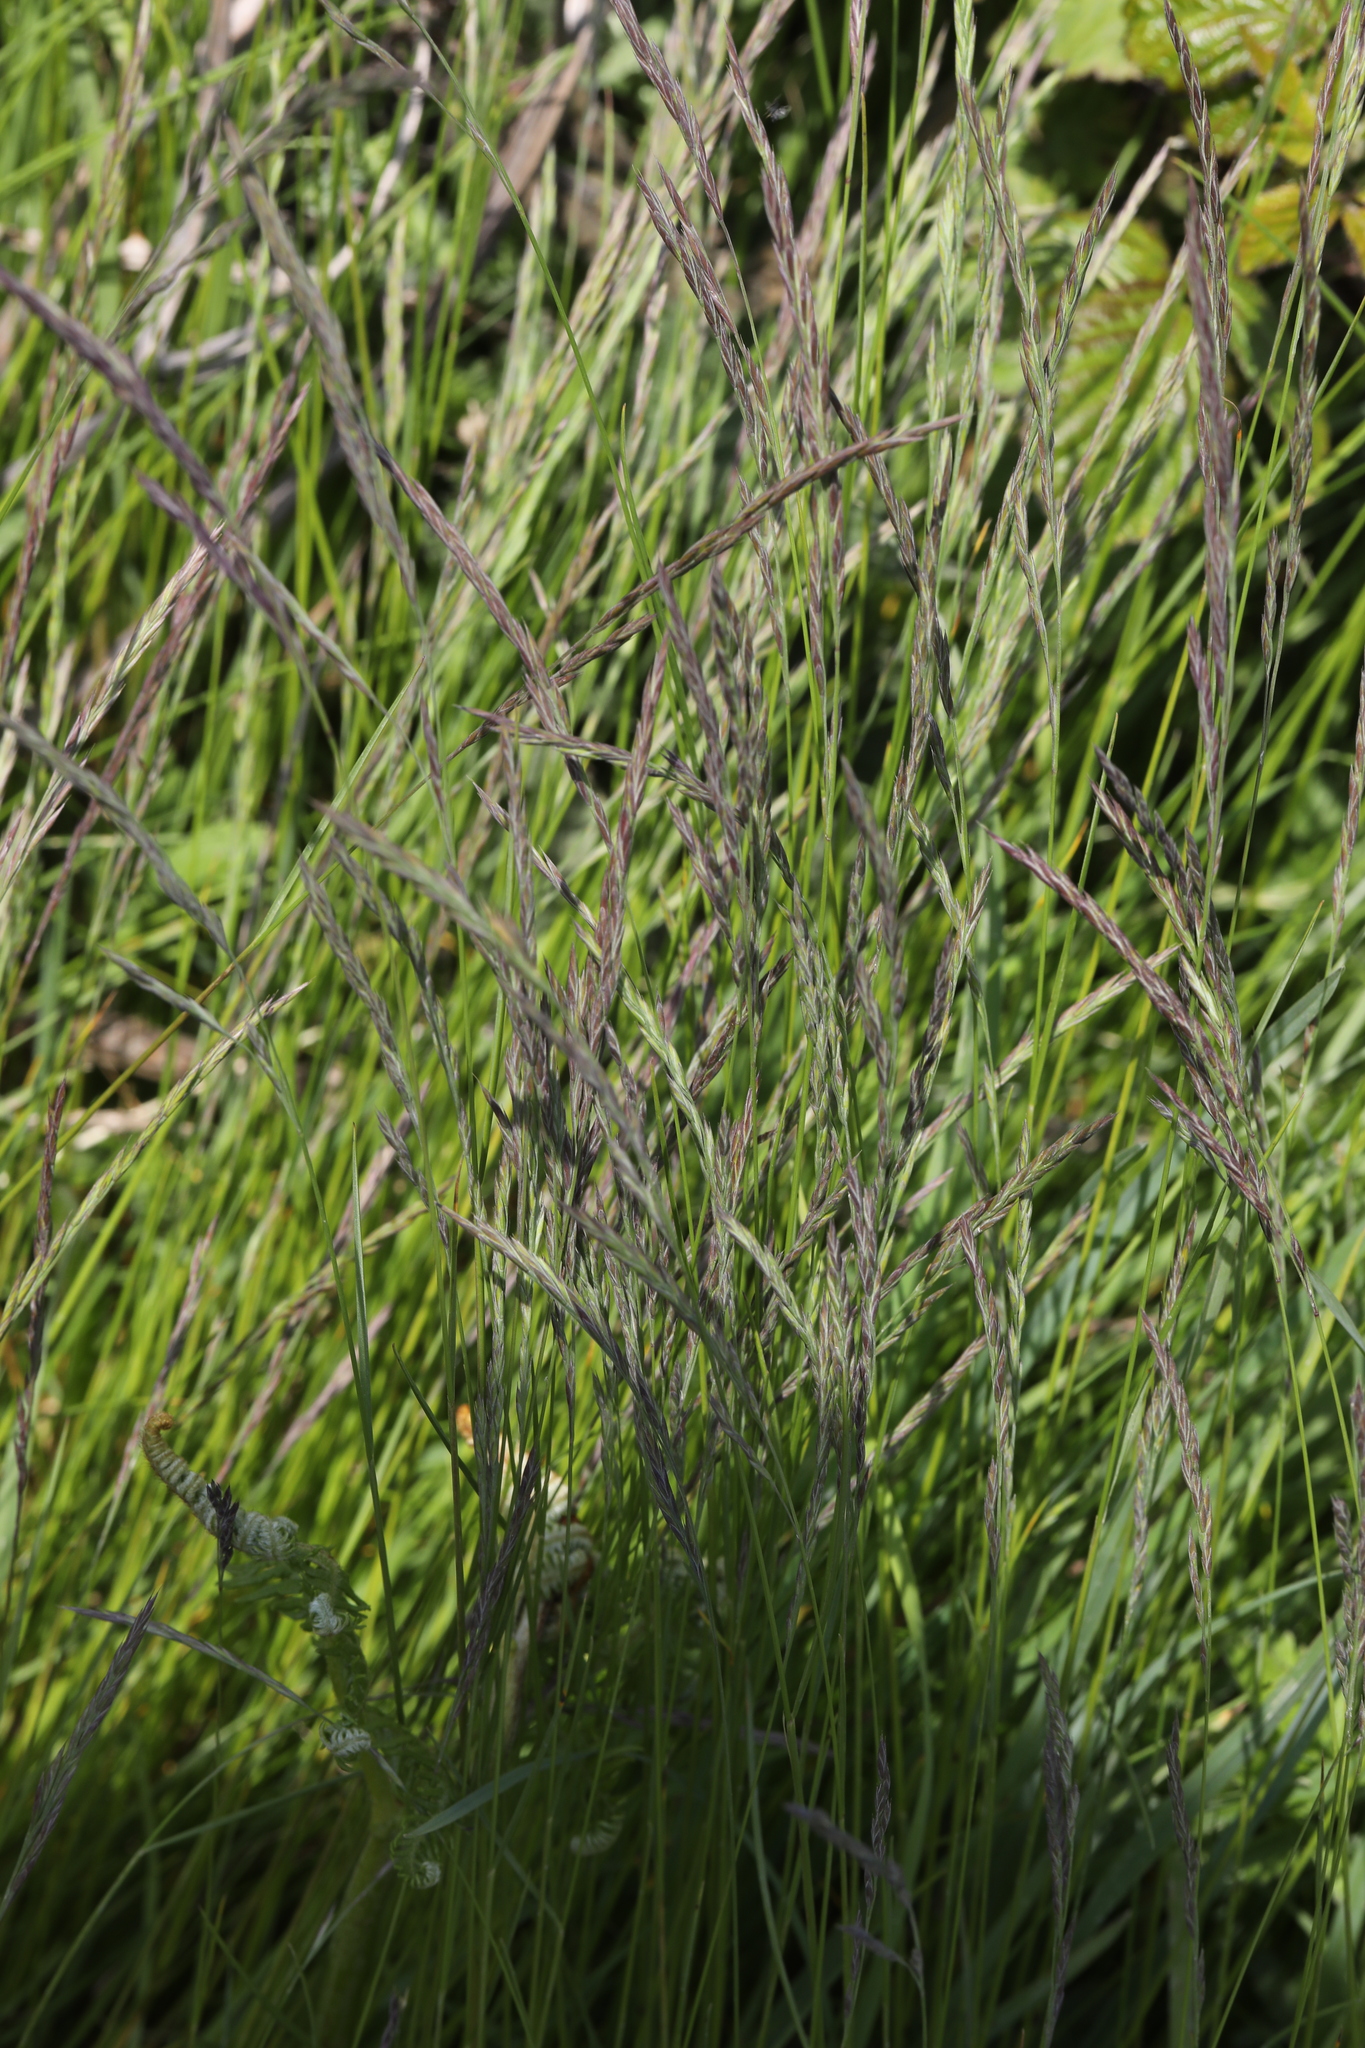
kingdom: Plantae
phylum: Tracheophyta
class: Liliopsida
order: Poales
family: Poaceae
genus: Festuca
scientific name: Festuca rubra
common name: Red fescue
